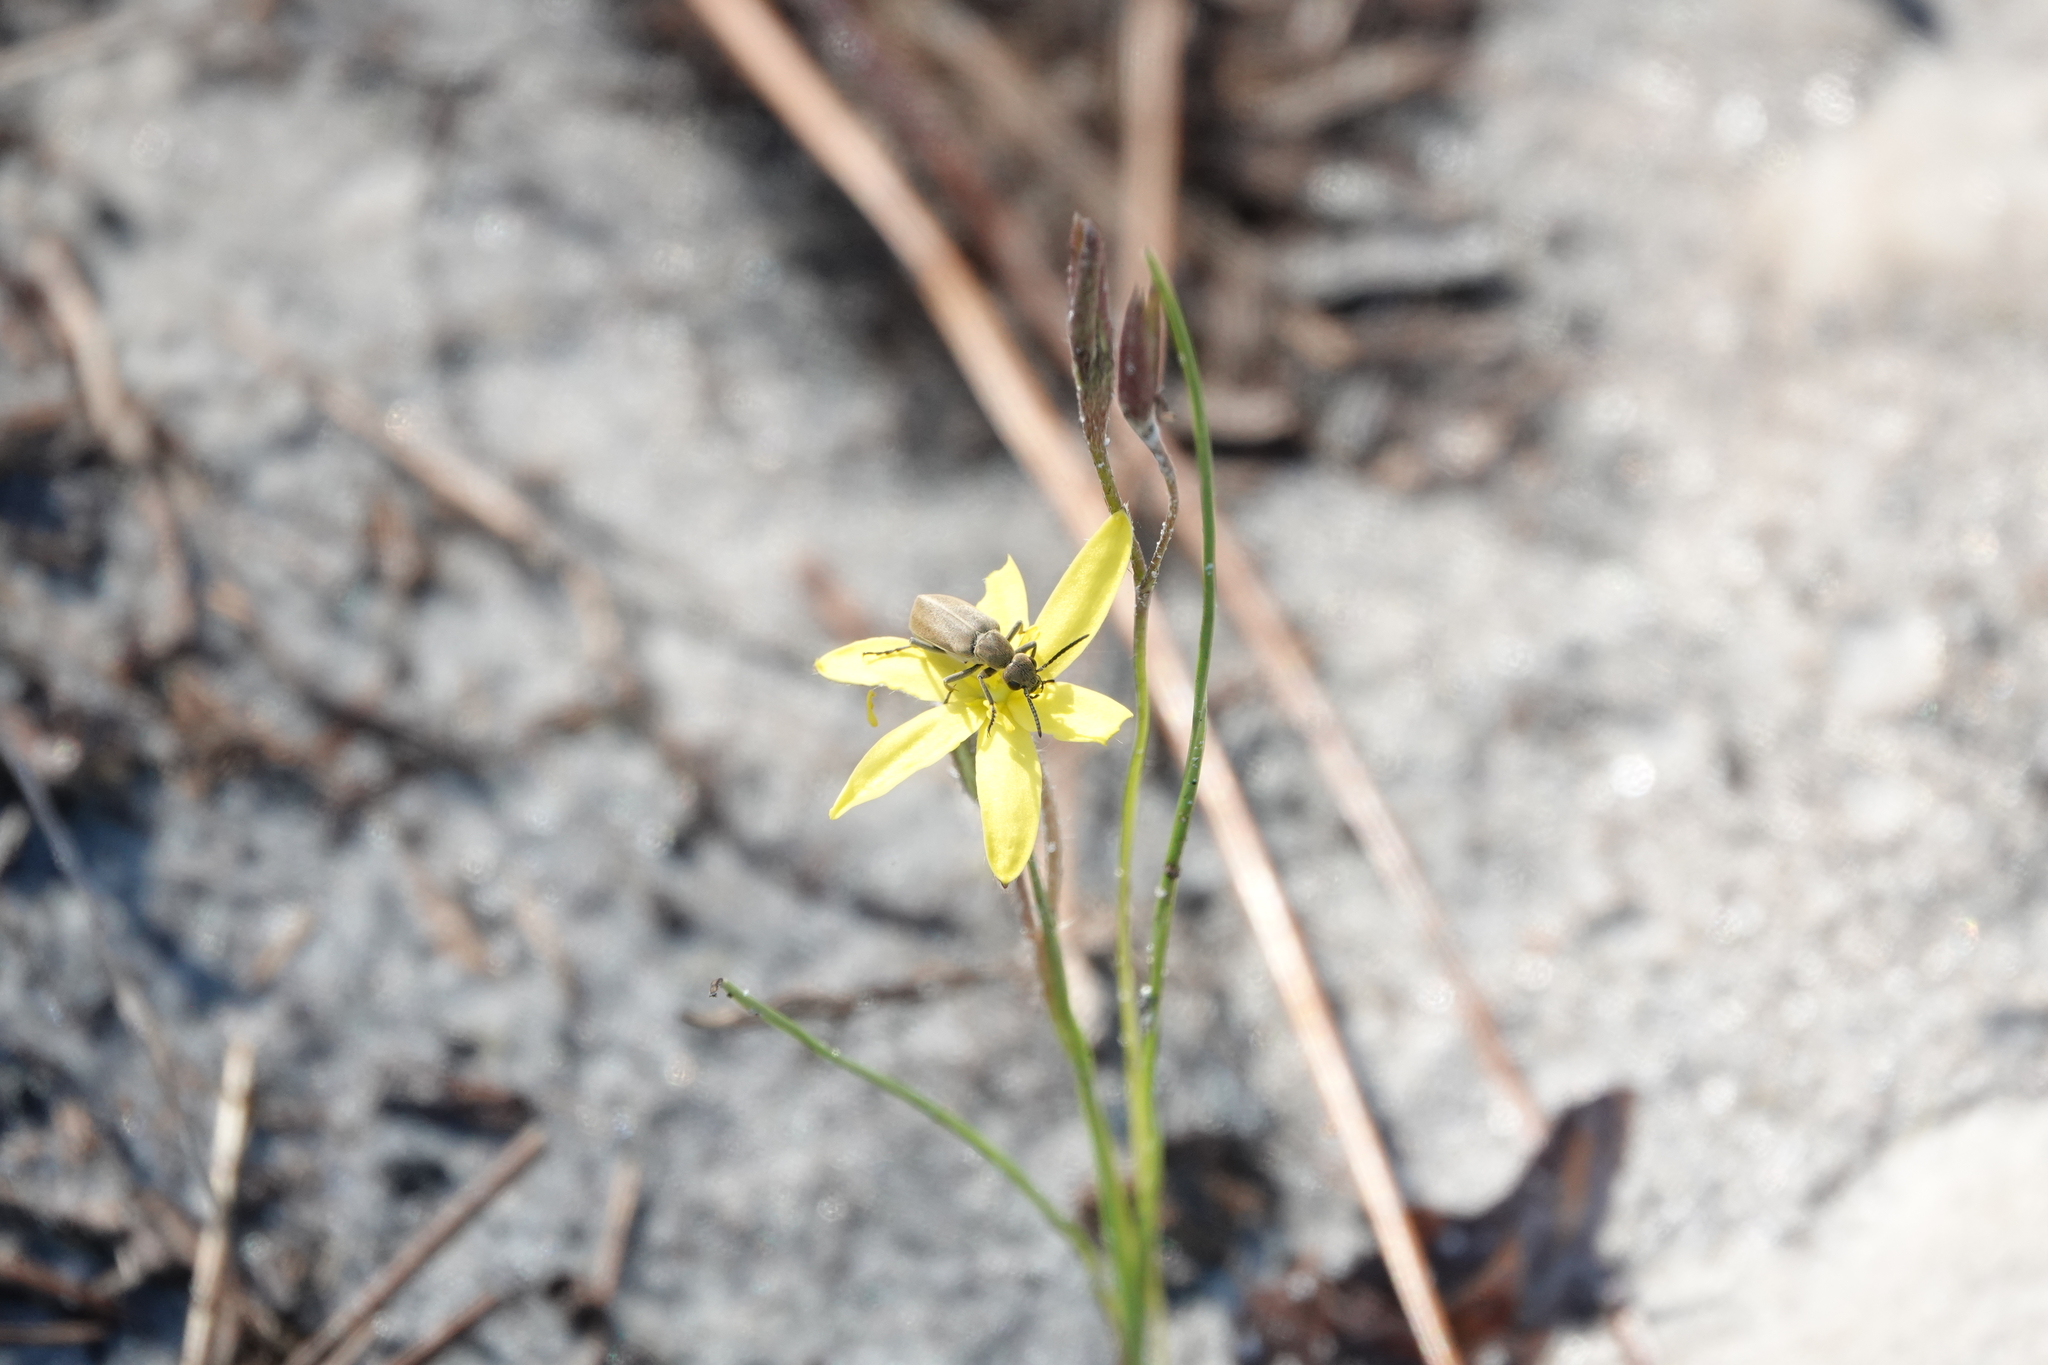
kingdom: Plantae
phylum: Tracheophyta
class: Liliopsida
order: Asparagales
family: Hypoxidaceae
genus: Hypoxis
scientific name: Hypoxis juncea
